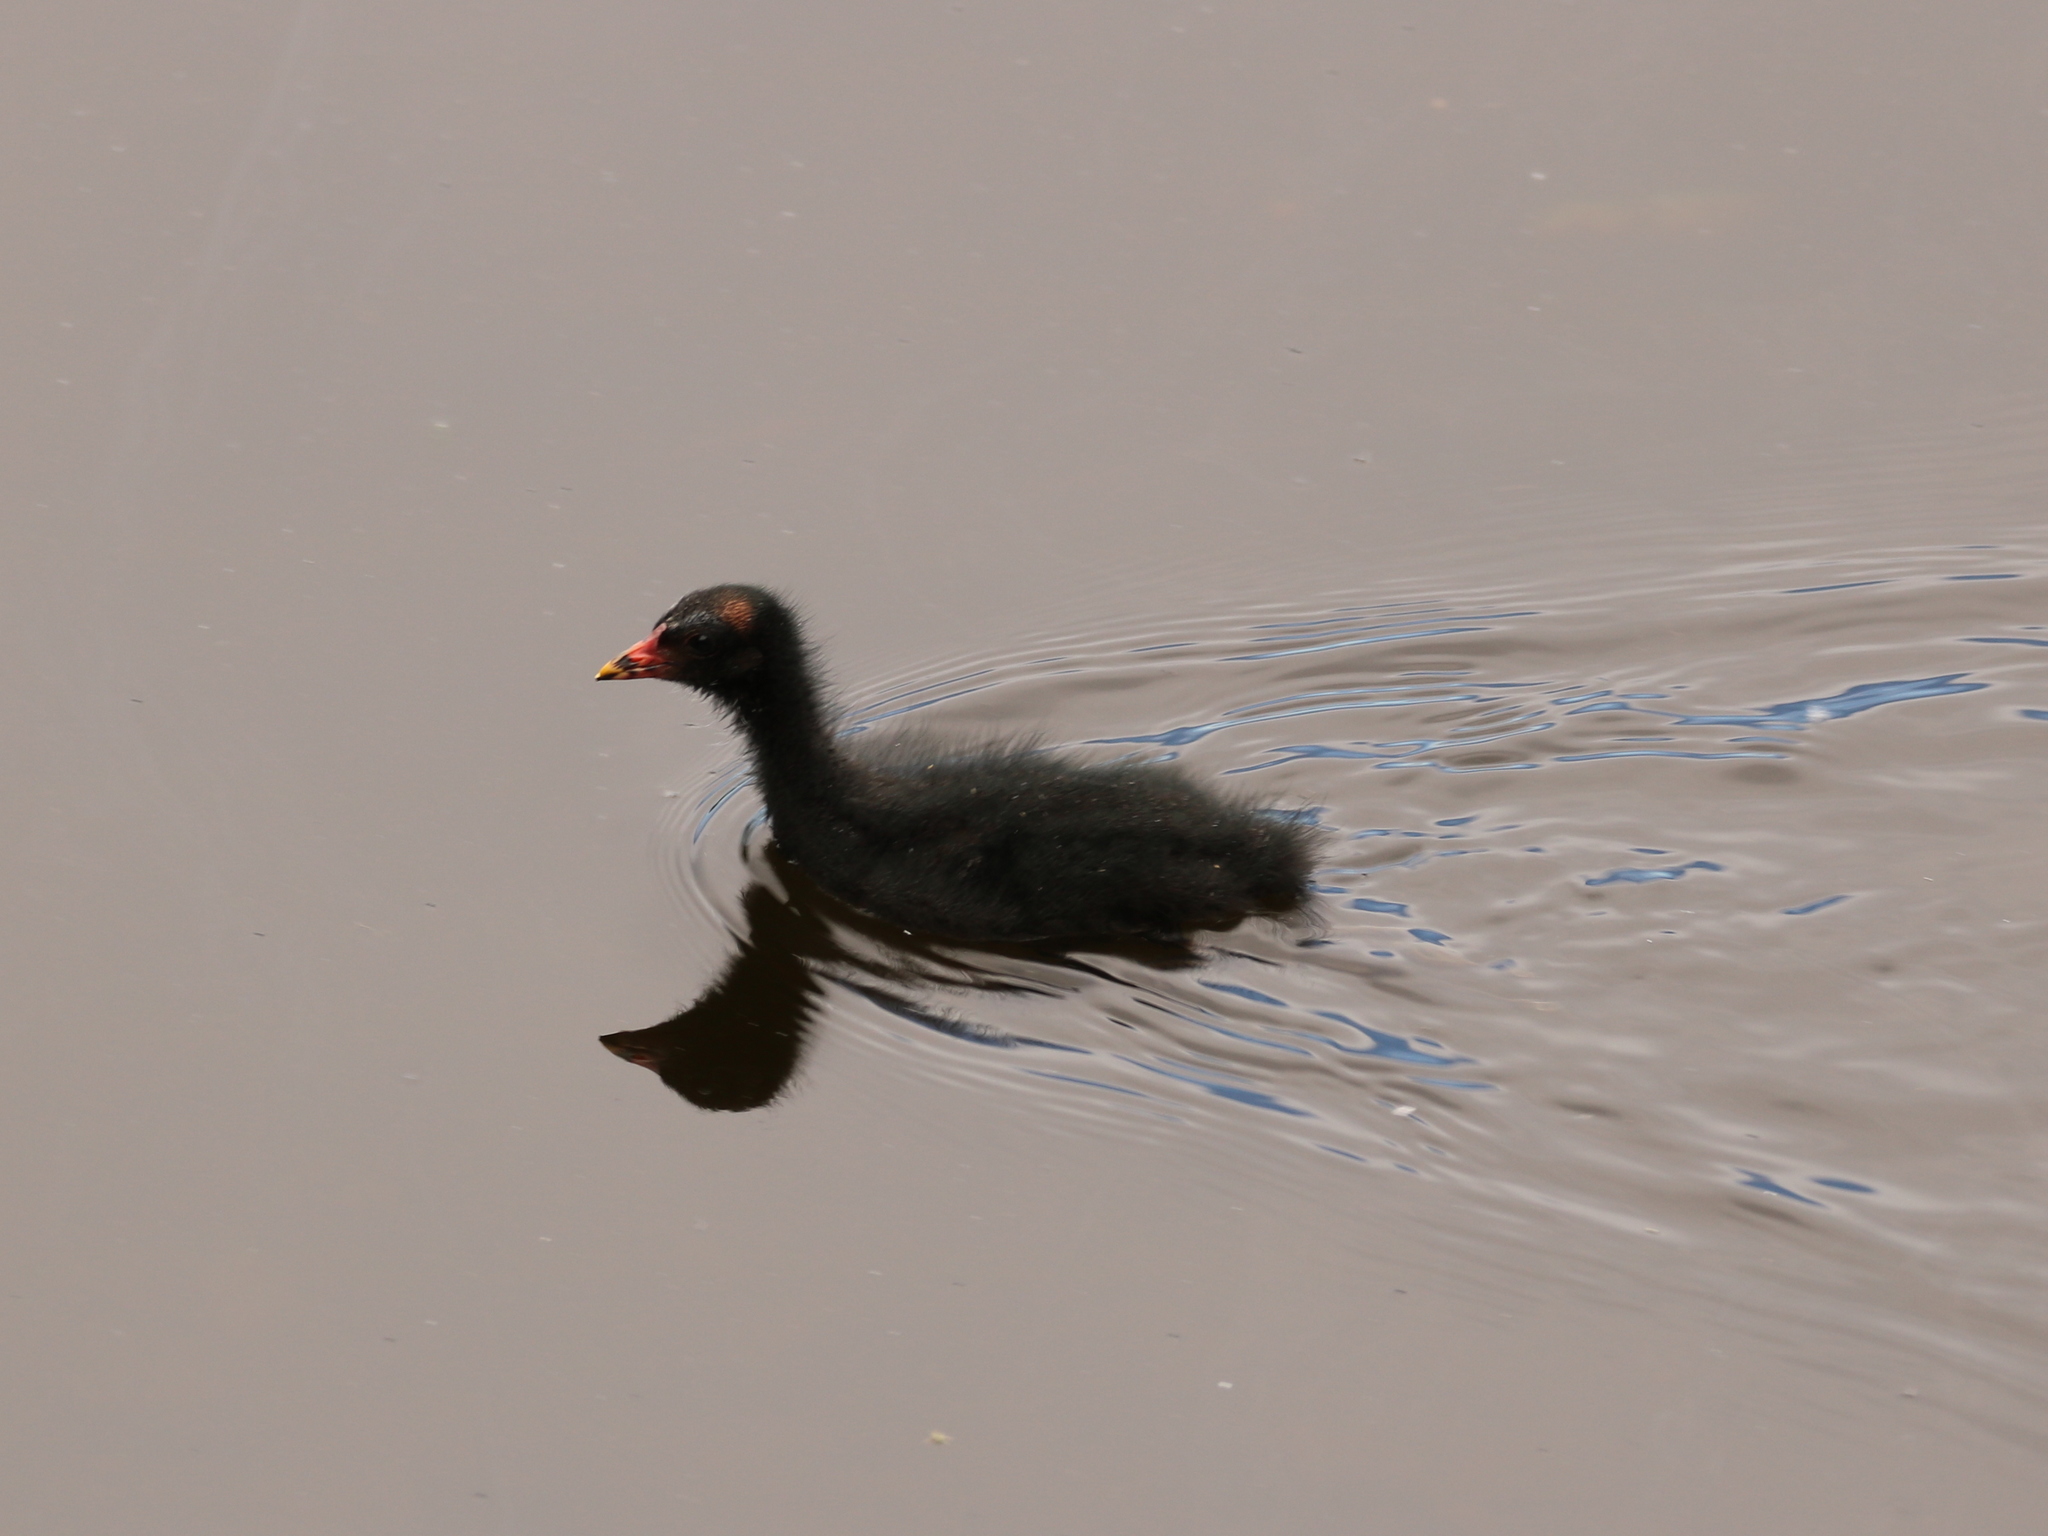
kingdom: Animalia
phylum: Chordata
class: Aves
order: Gruiformes
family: Rallidae
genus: Gallinula
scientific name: Gallinula chloropus
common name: Common moorhen
